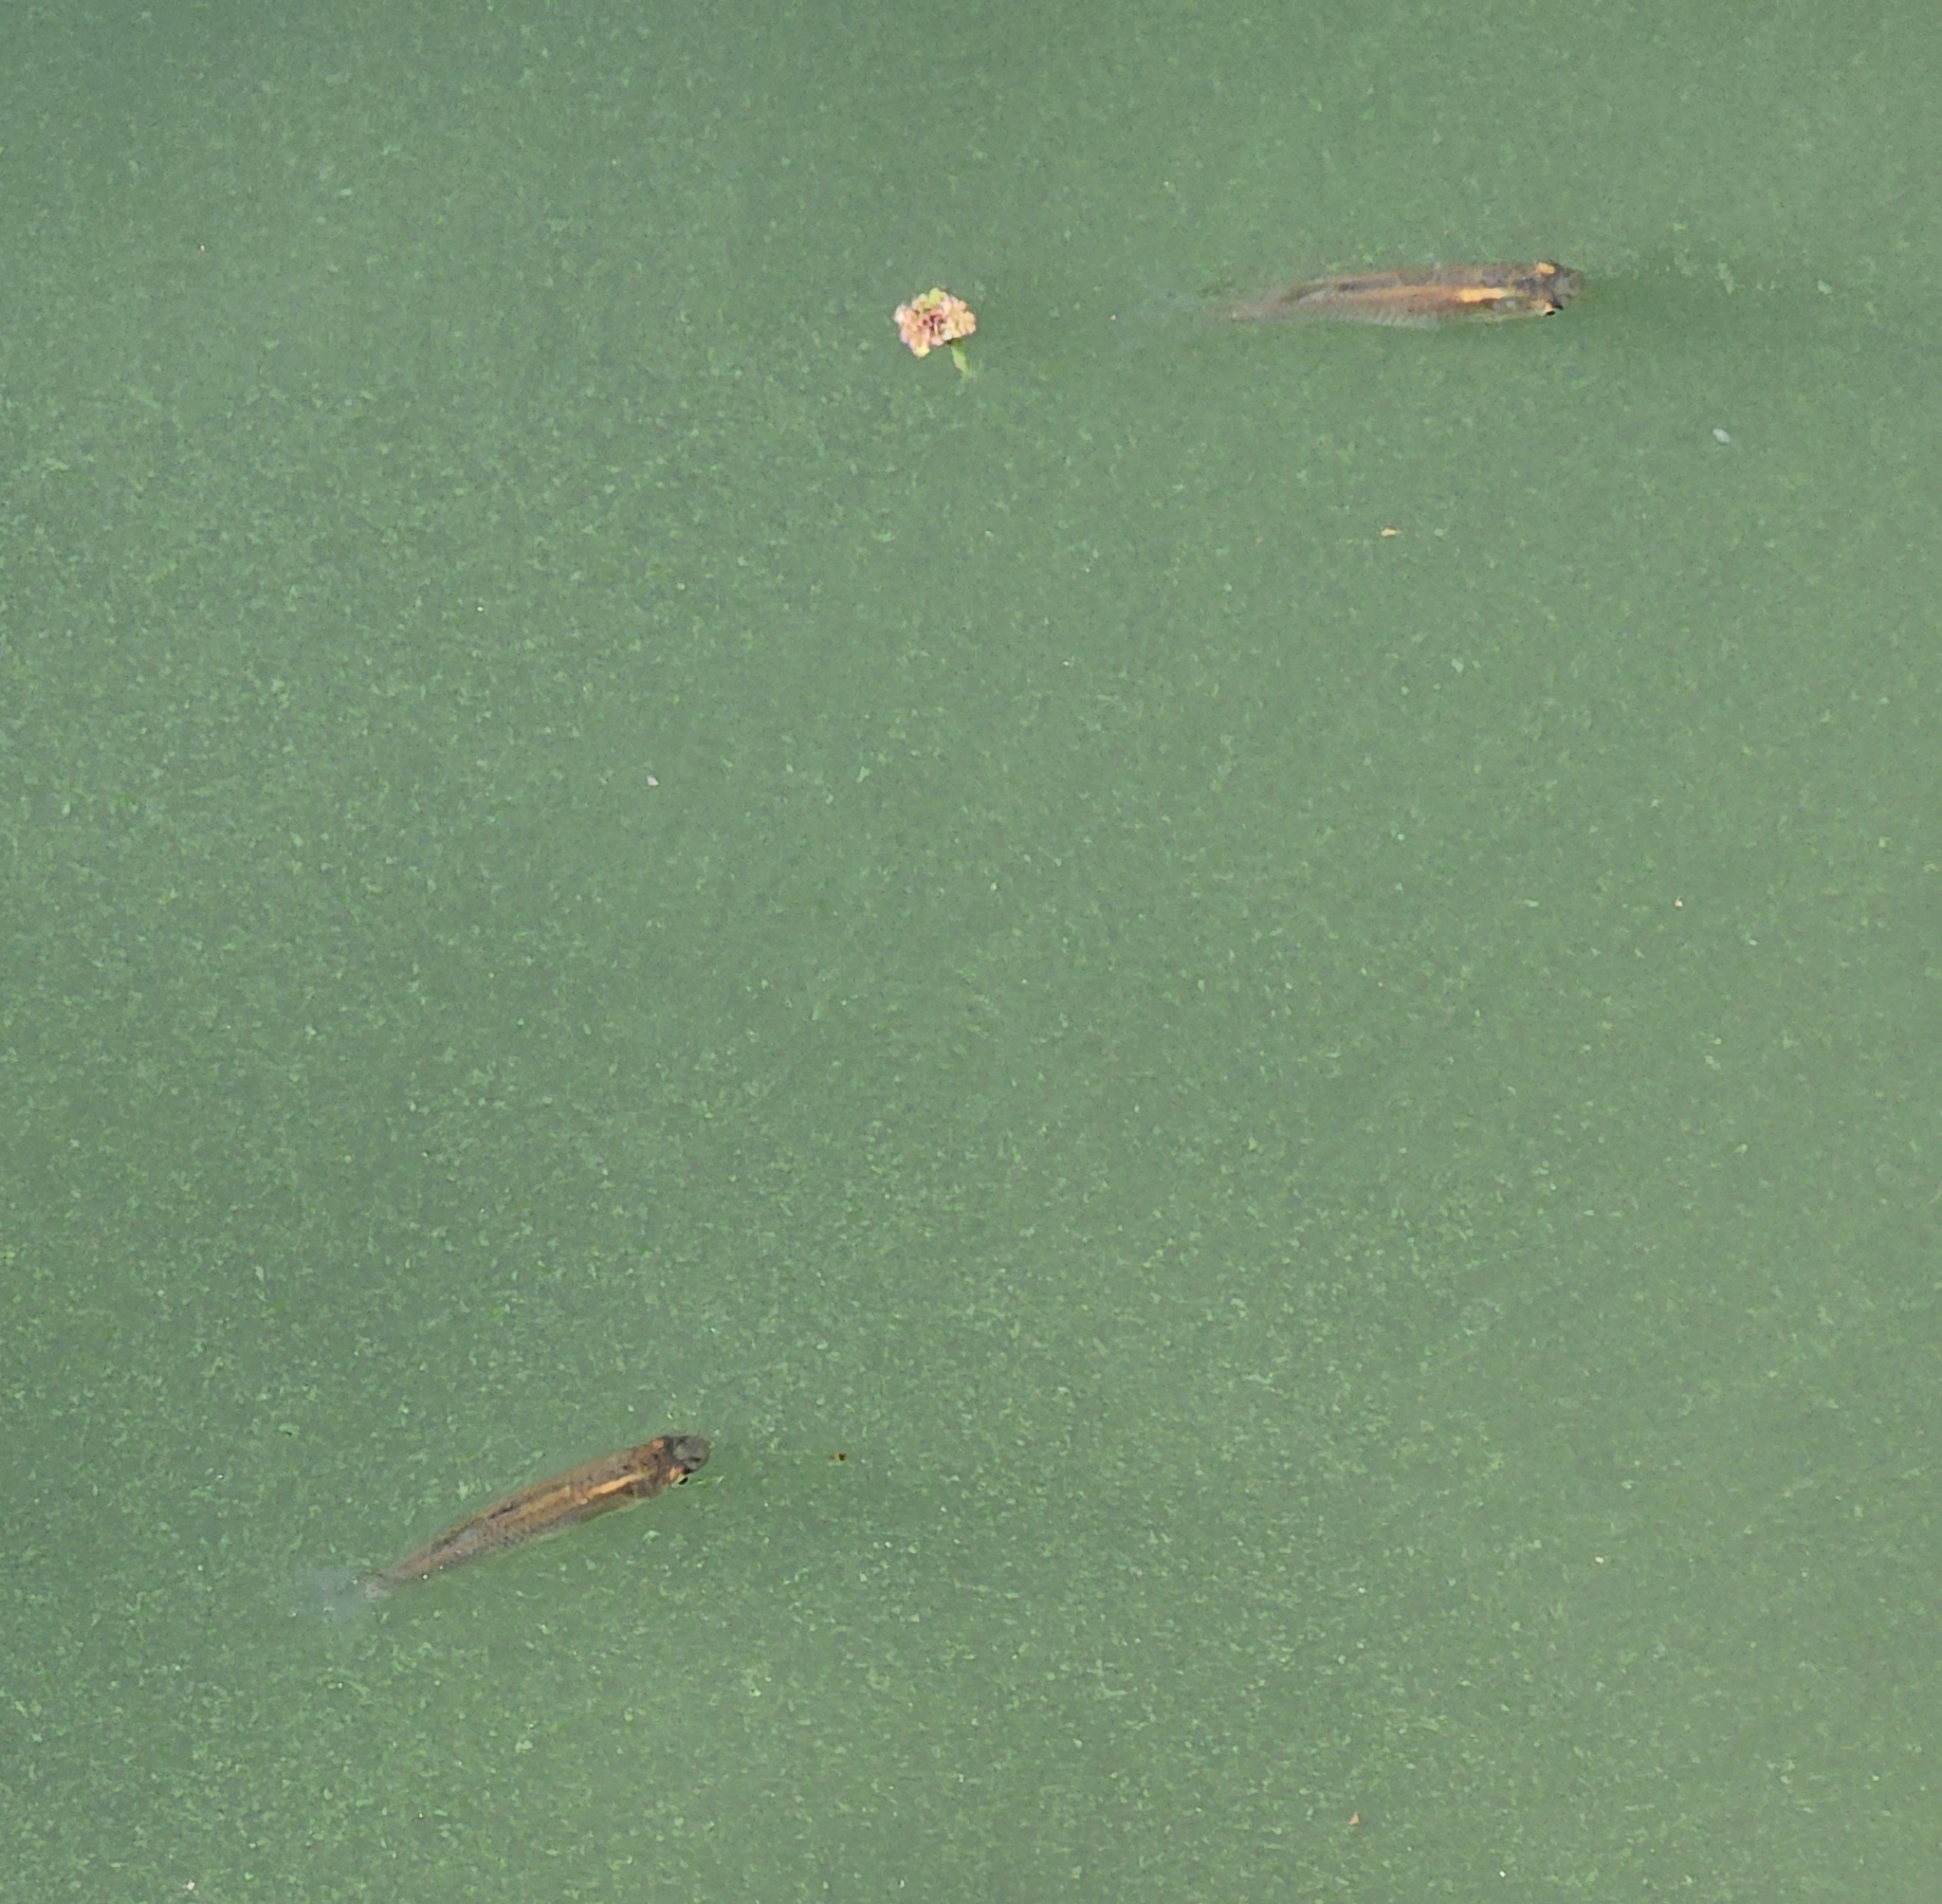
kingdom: Animalia
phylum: Chordata
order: Cyprinodontiformes
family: Poeciliidae
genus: Gambusia
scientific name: Gambusia affinis
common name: Mosquitofish
